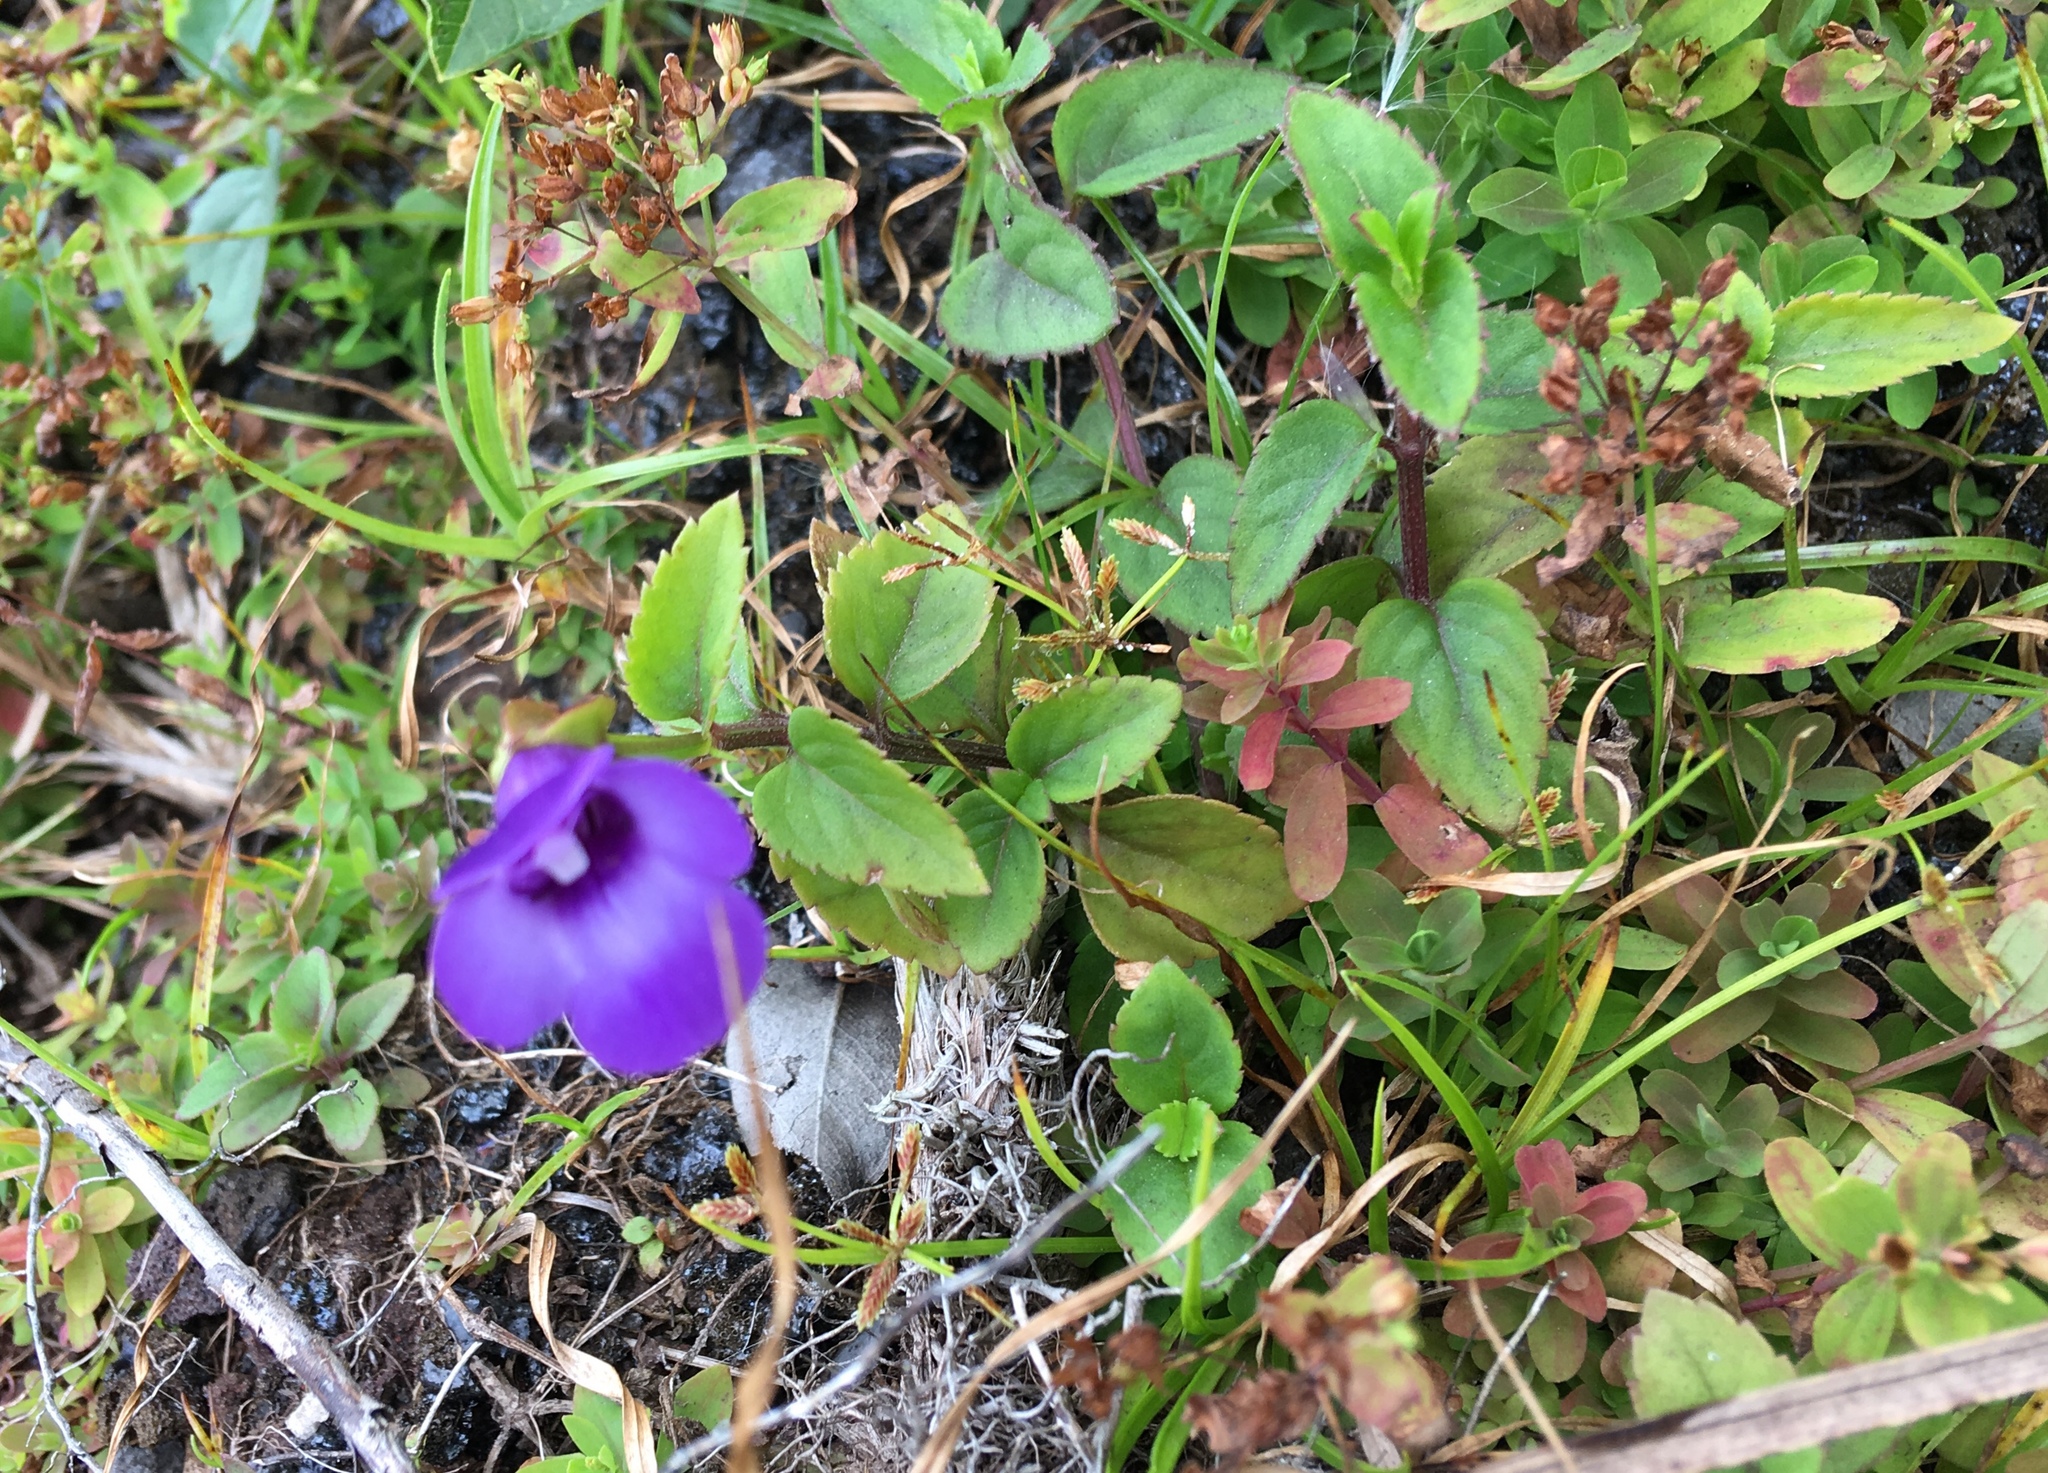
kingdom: Plantae
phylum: Tracheophyta
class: Magnoliopsida
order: Lamiales
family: Linderniaceae
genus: Torenia
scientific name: Torenia asiatica
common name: Wishbone flower
